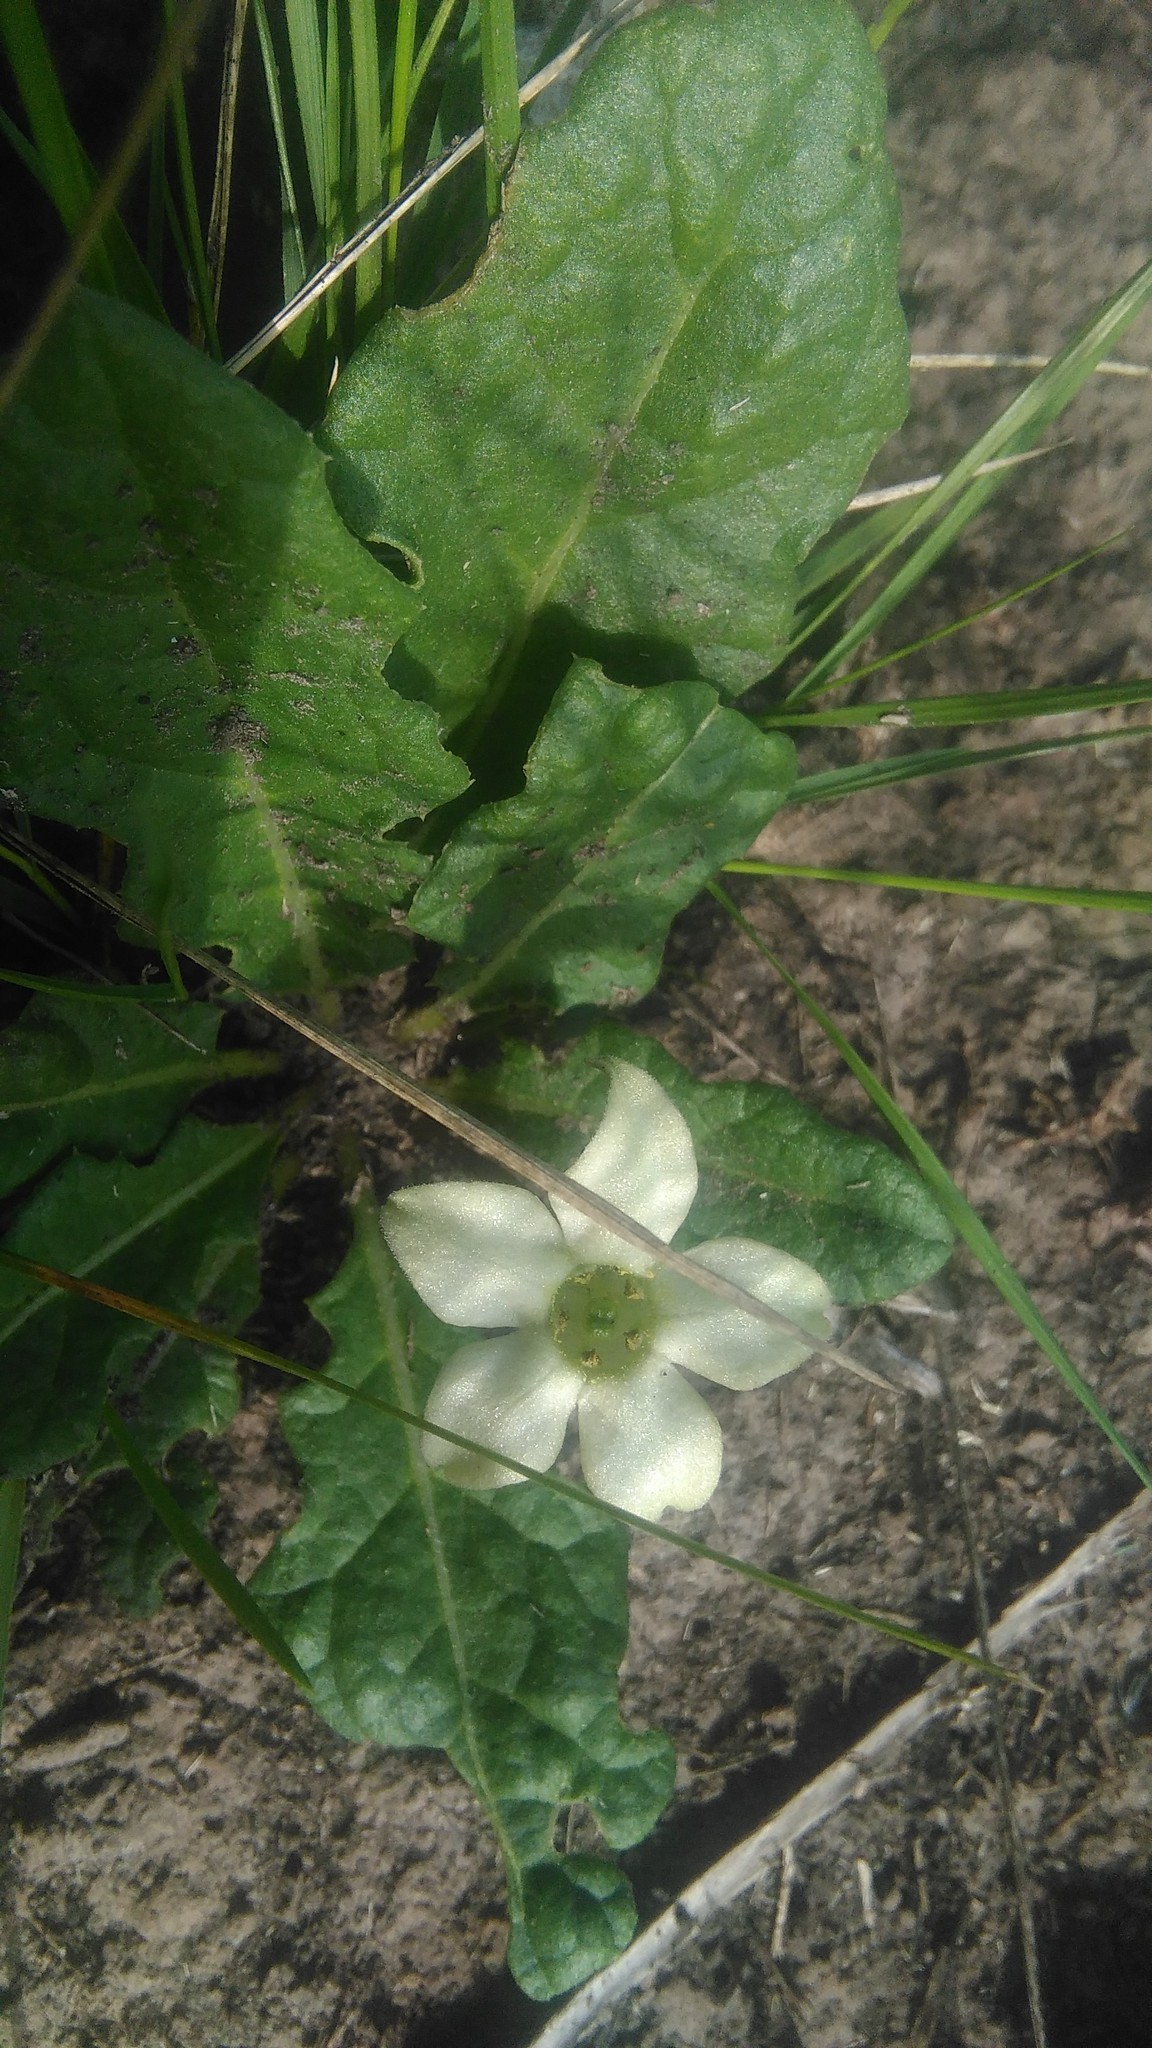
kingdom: Plantae
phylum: Tracheophyta
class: Magnoliopsida
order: Solanales
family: Solanaceae
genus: Jaborosa
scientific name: Jaborosa runcinata
